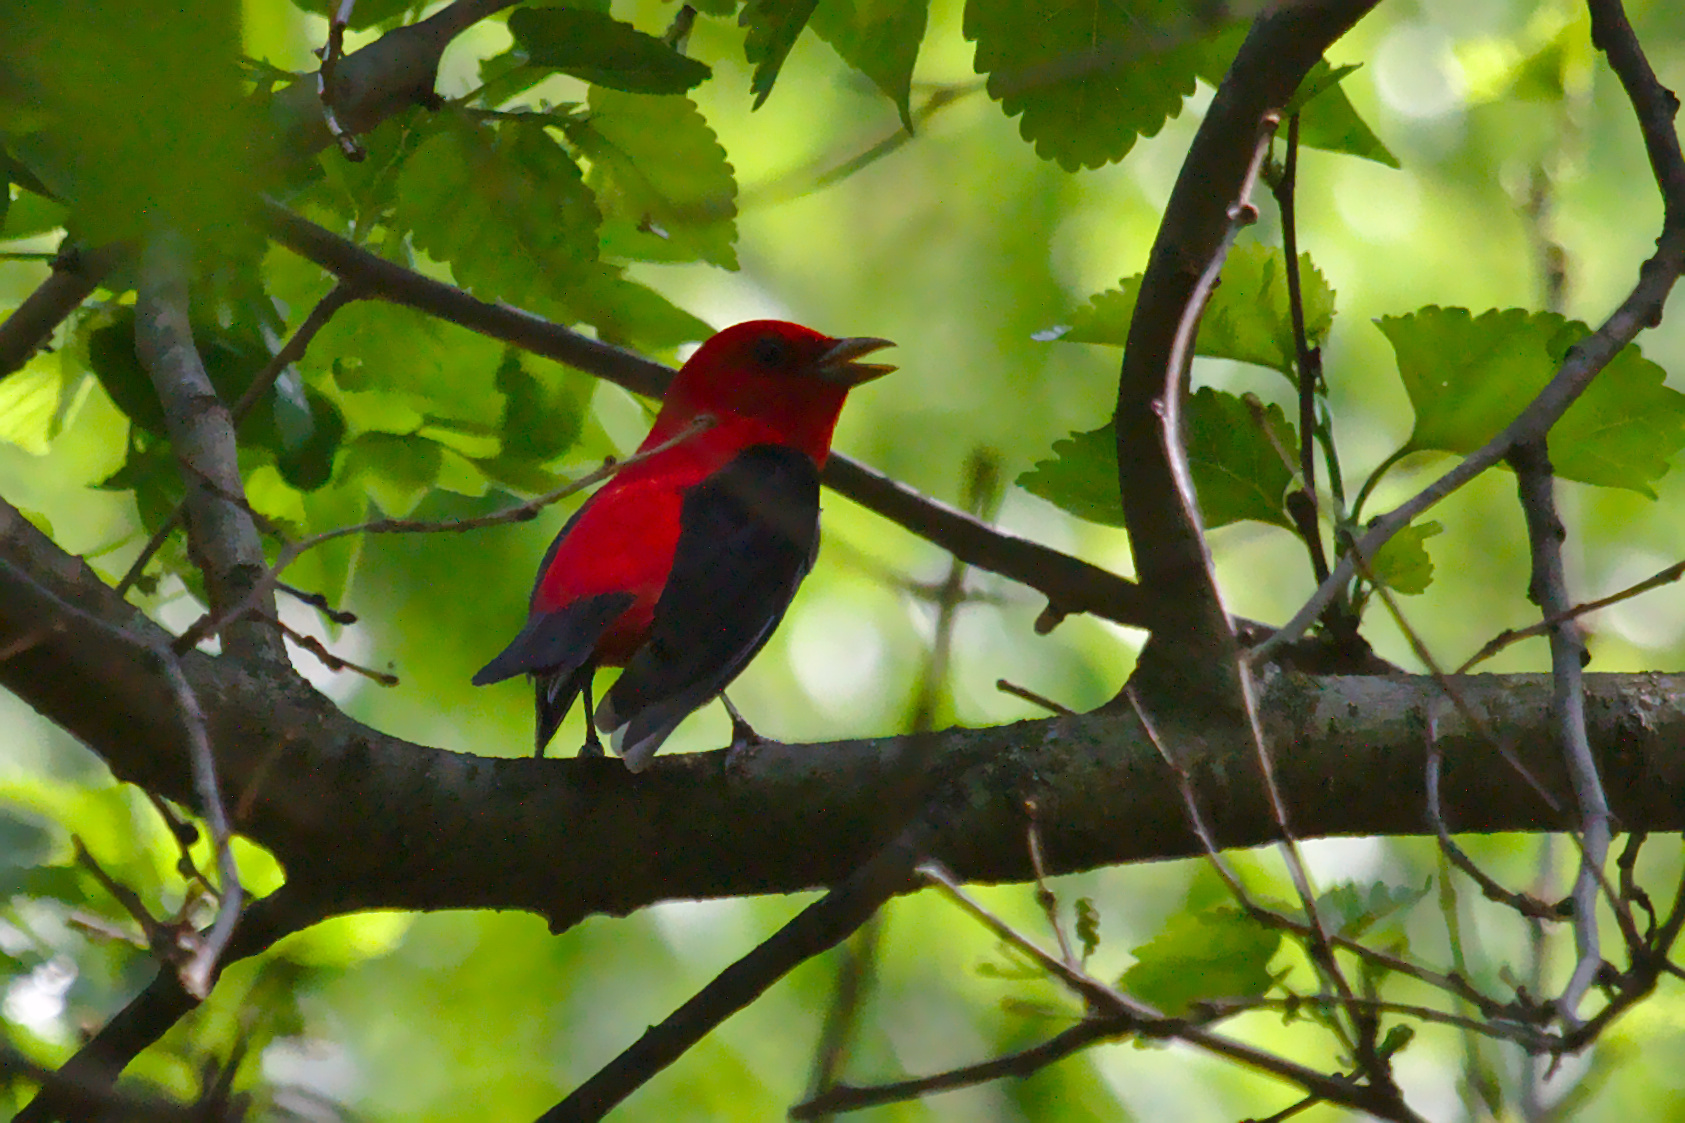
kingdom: Animalia
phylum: Chordata
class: Aves
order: Passeriformes
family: Cardinalidae
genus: Piranga
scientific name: Piranga olivacea
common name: Scarlet tanager
